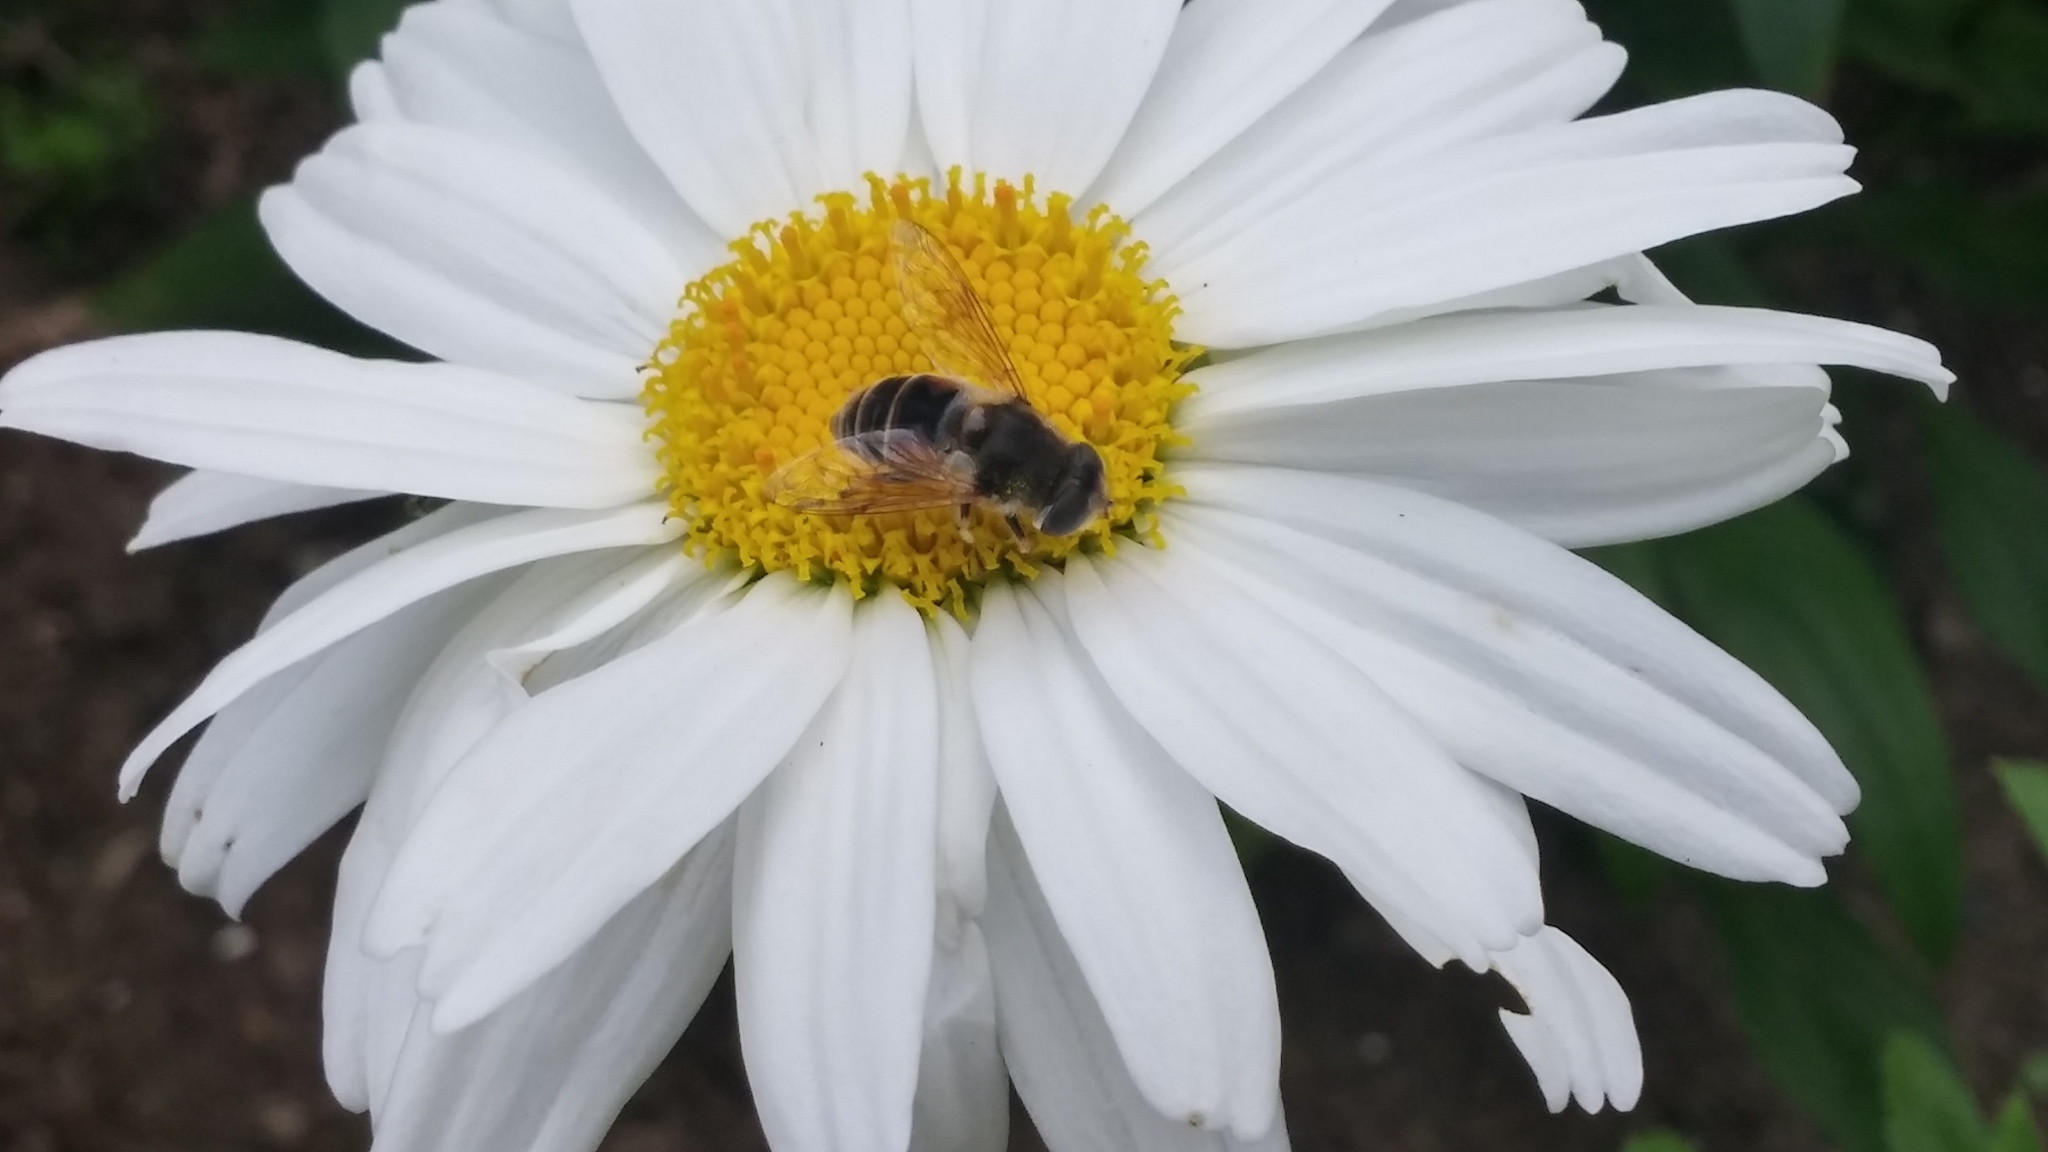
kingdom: Animalia
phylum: Arthropoda
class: Insecta
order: Diptera
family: Syrphidae
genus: Eristalis
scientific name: Eristalis arbustorum
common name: Hover fly
